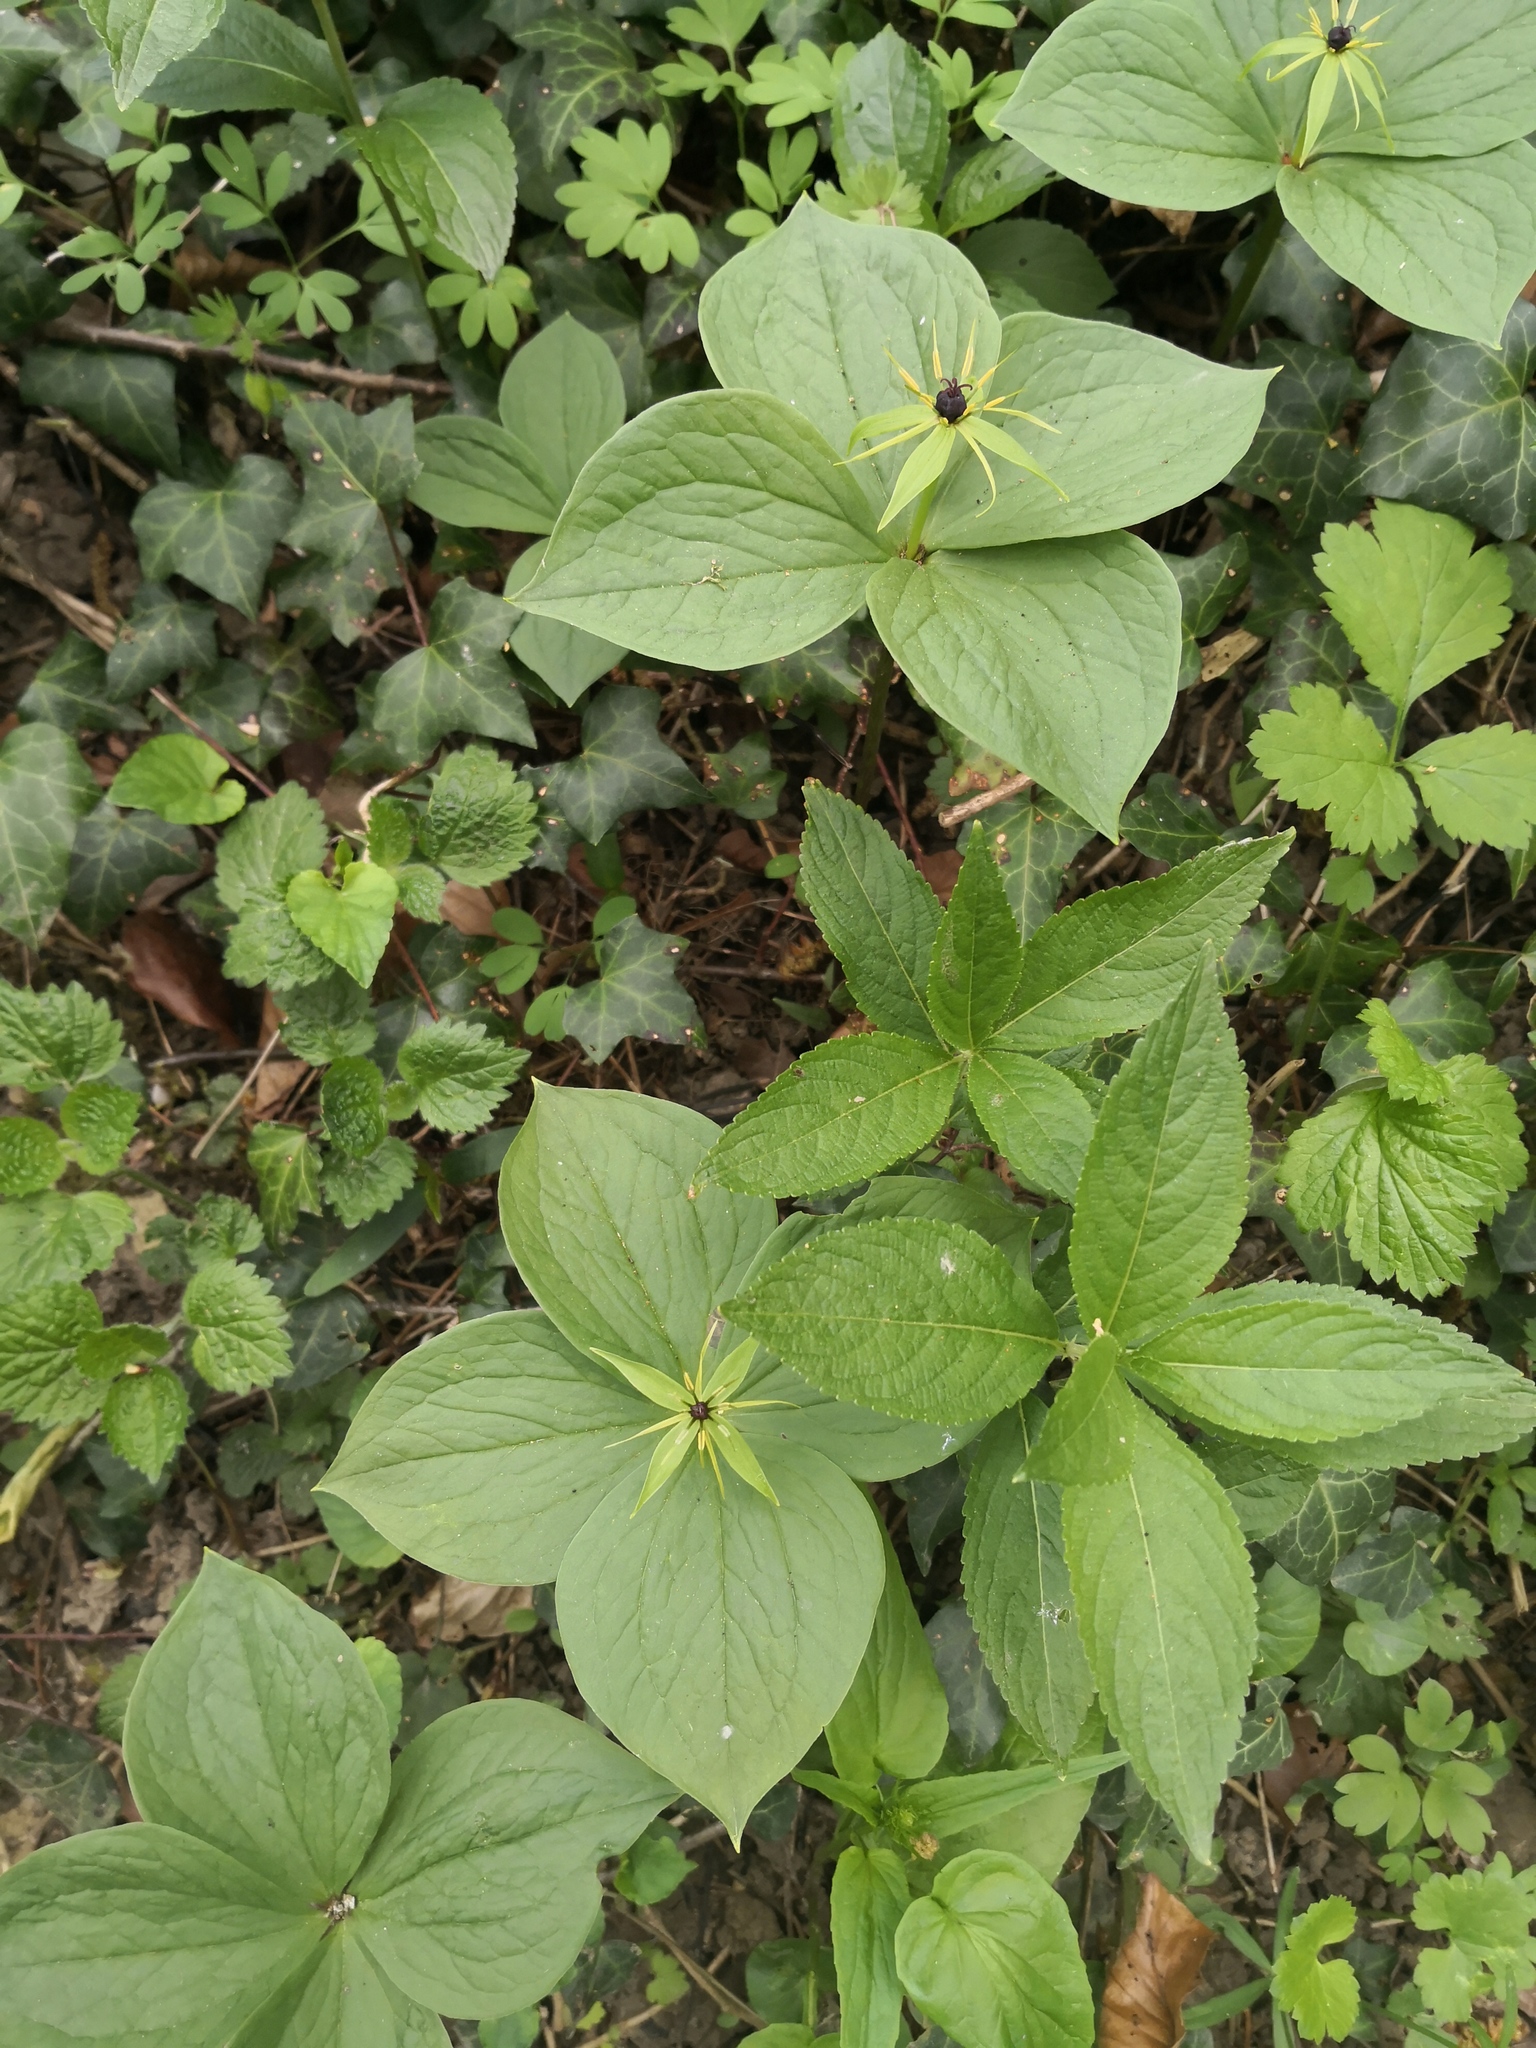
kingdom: Plantae
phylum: Tracheophyta
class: Liliopsida
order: Liliales
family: Melanthiaceae
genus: Paris
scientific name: Paris quadrifolia
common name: Herb-paris
